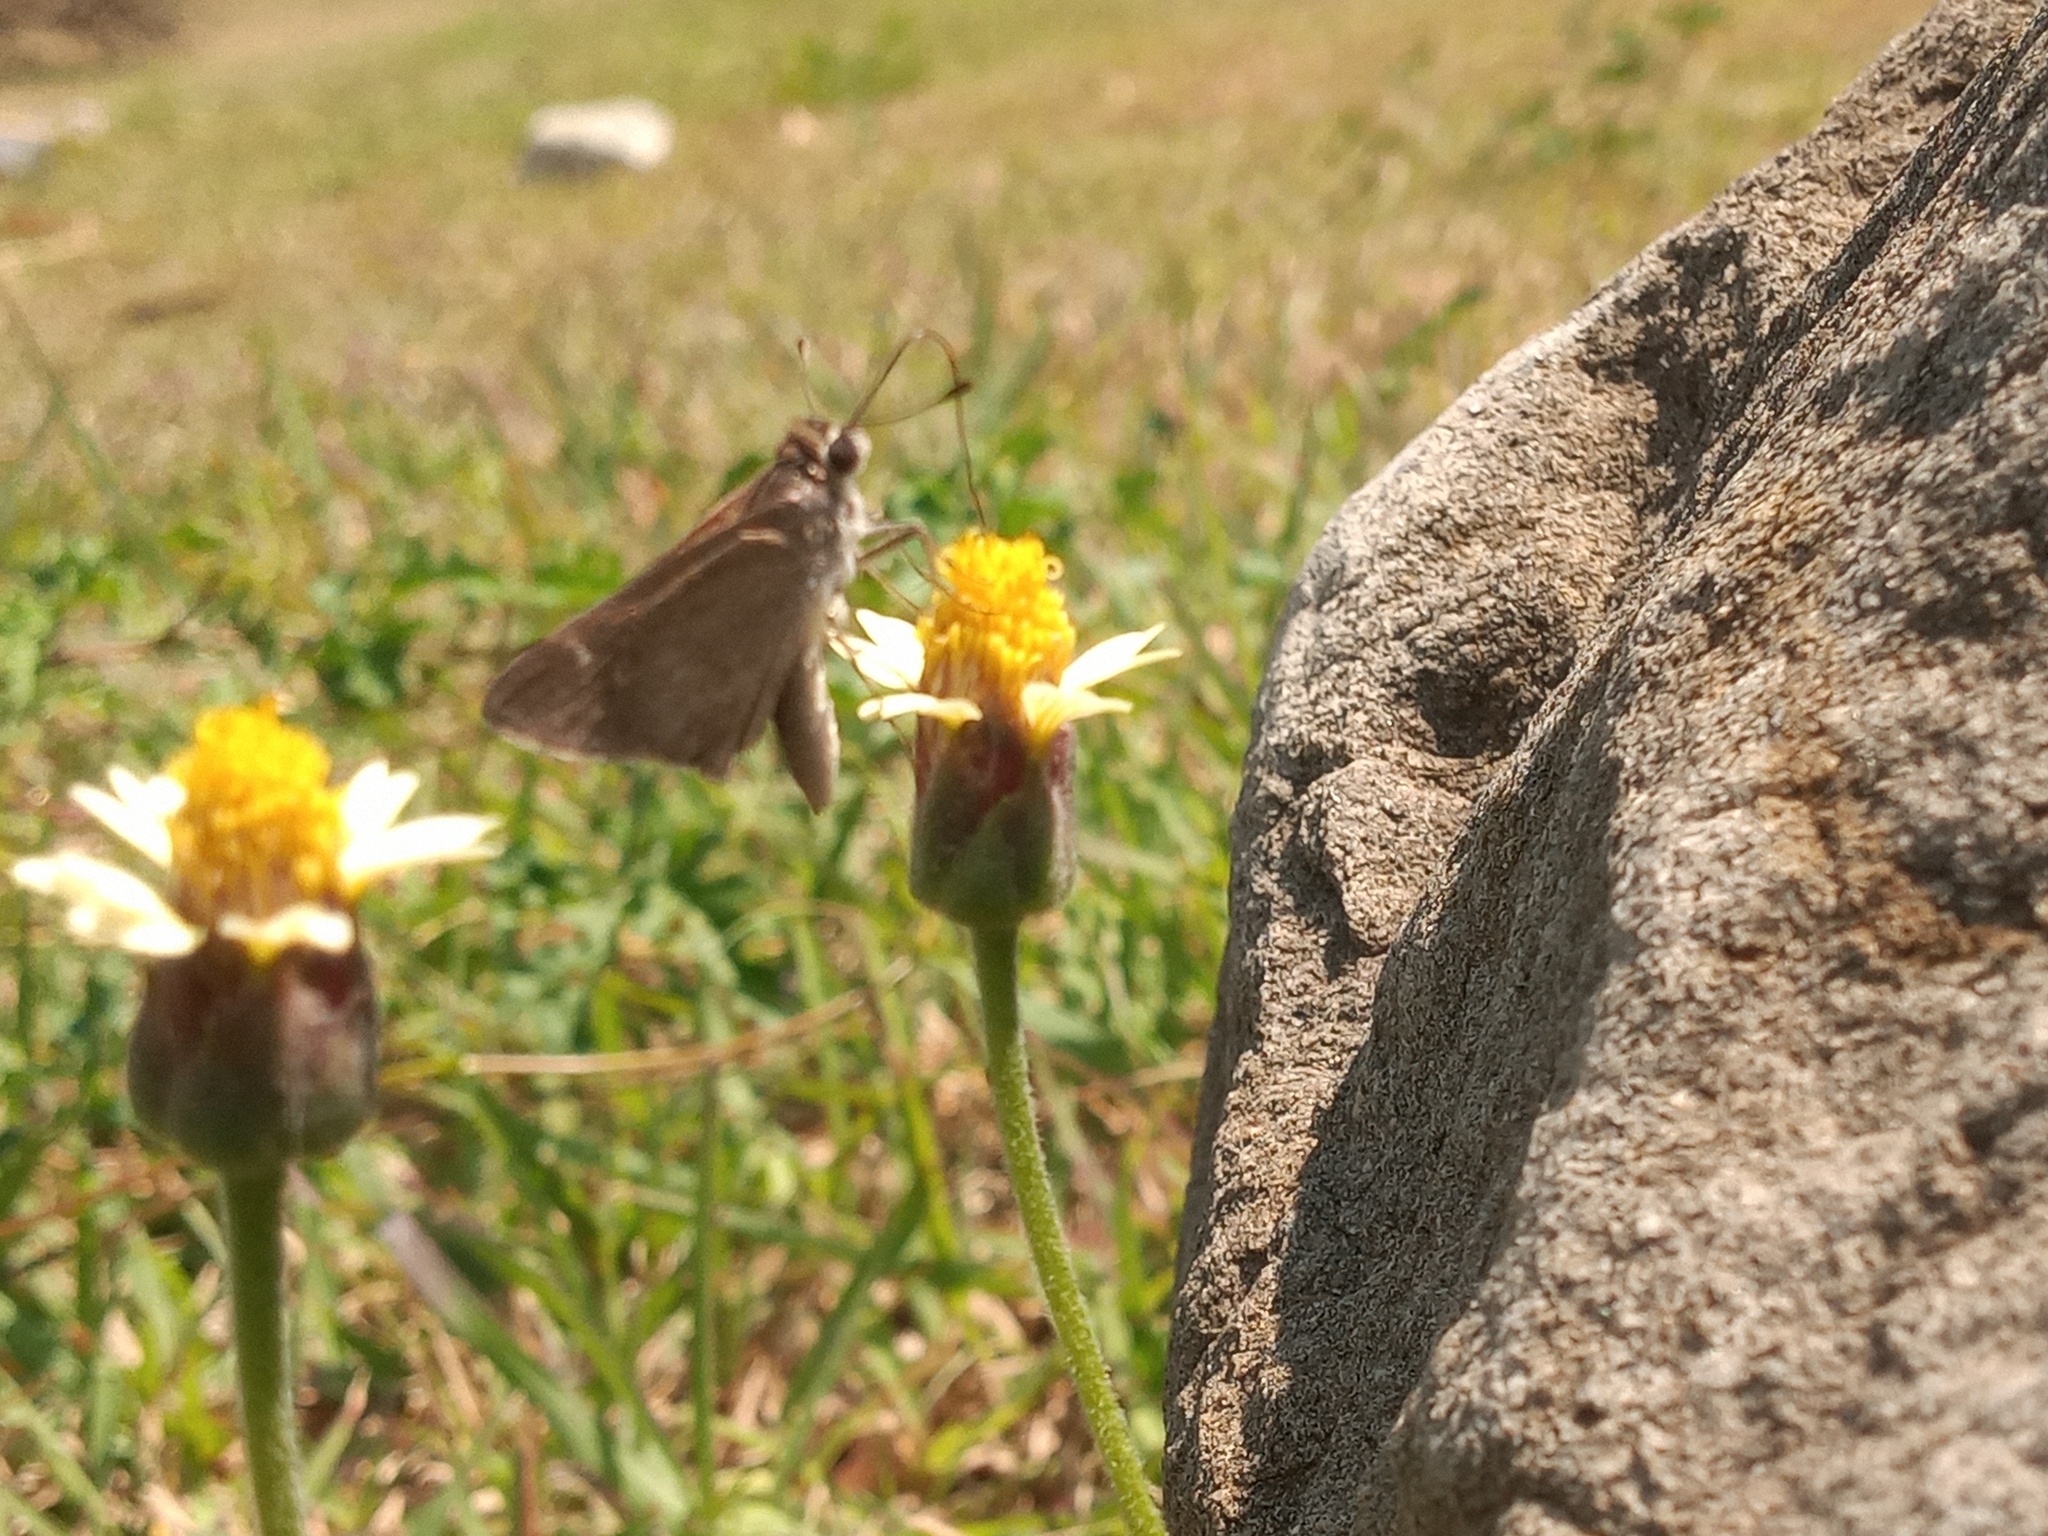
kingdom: Animalia
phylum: Arthropoda
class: Insecta
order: Lepidoptera
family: Hesperiidae
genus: Lerodea
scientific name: Lerodea eufala
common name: Eufala skipper
